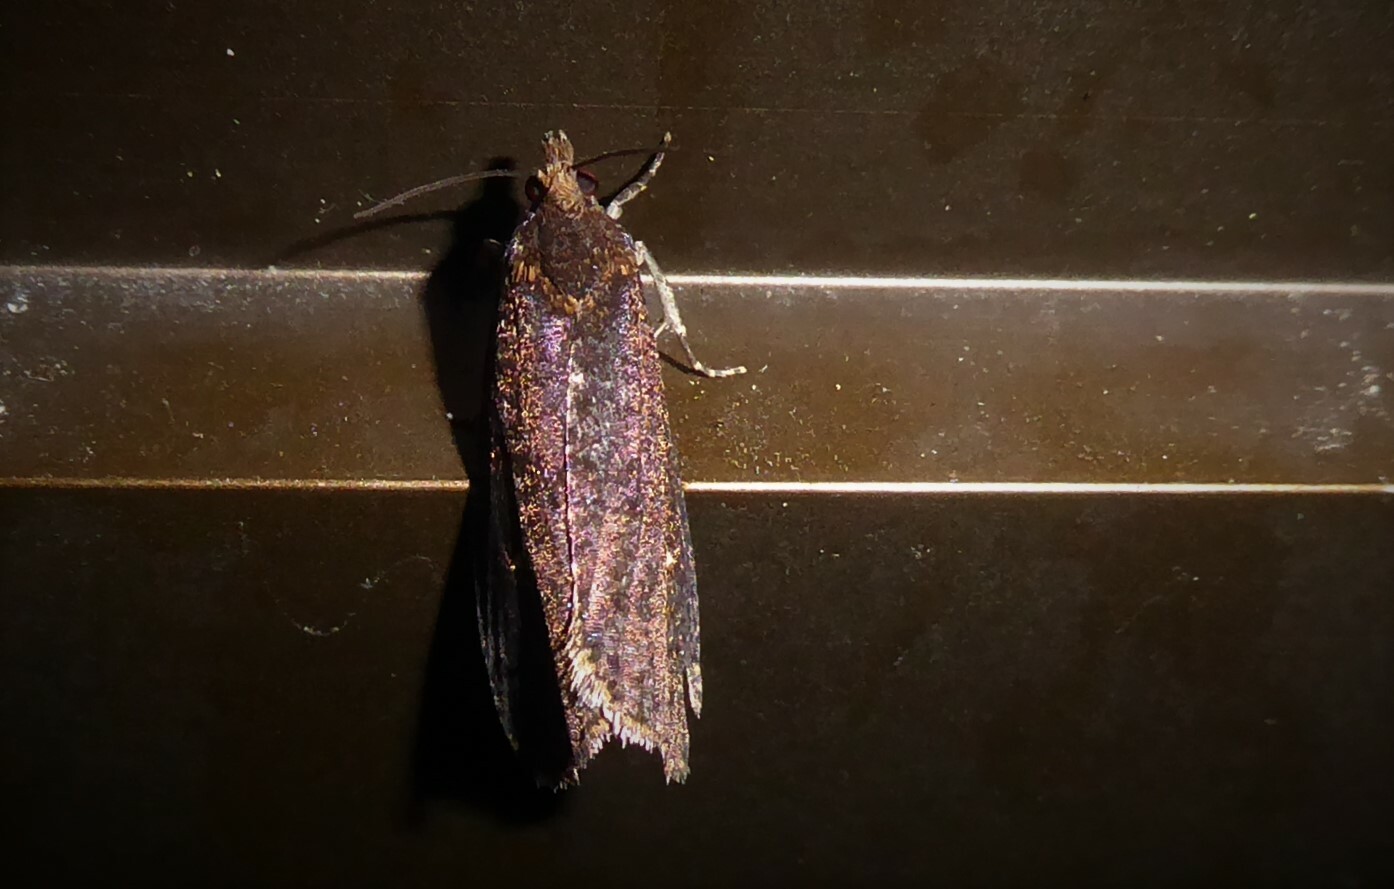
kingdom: Animalia
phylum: Arthropoda
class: Insecta
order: Lepidoptera
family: Tortricidae
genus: Cryptaspasma
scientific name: Cryptaspasma querula
